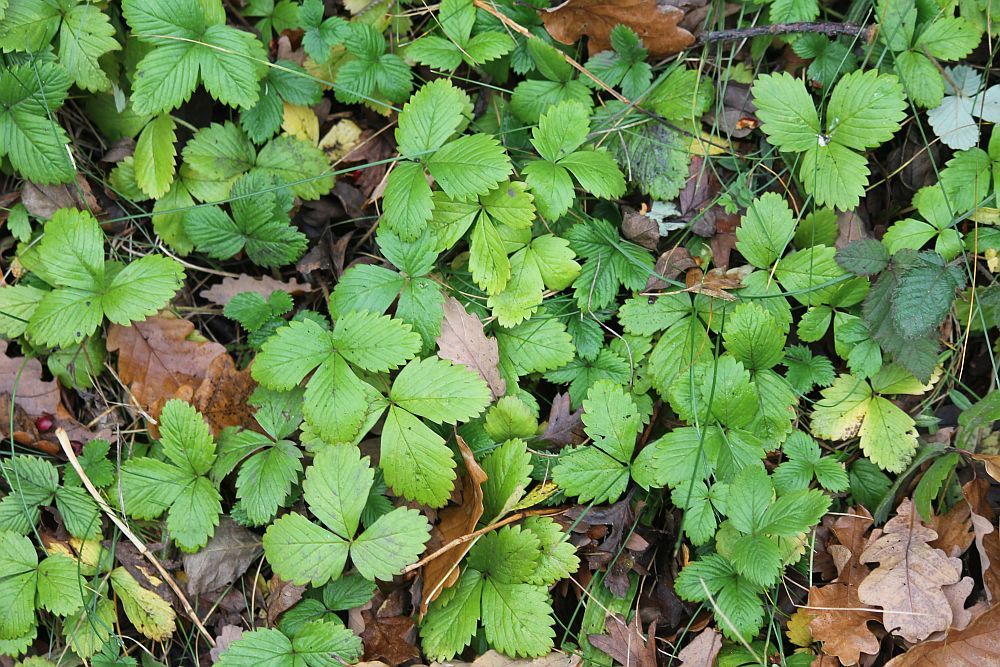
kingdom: Plantae
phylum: Tracheophyta
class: Magnoliopsida
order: Rosales
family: Rosaceae
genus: Fragaria
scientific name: Fragaria vesca
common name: Wild strawberry
